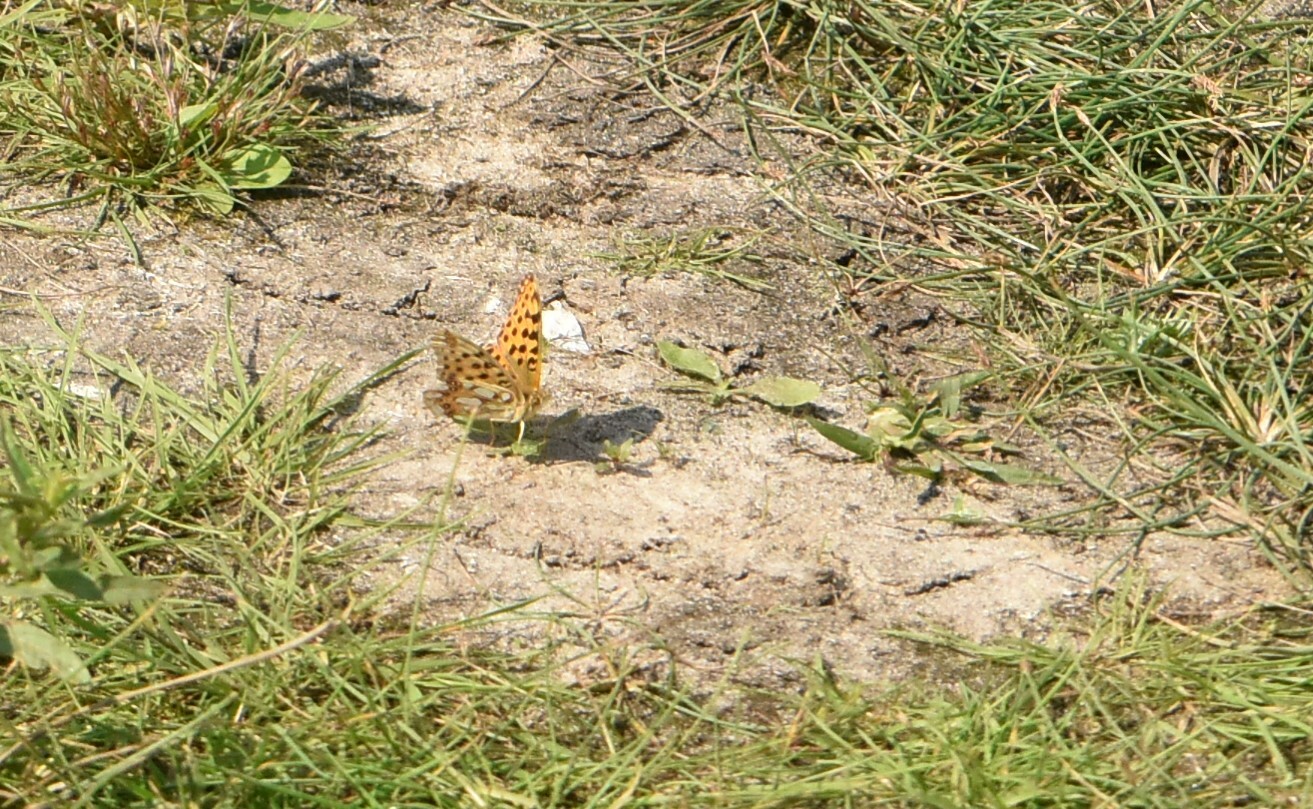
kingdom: Animalia
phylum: Arthropoda
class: Insecta
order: Lepidoptera
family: Nymphalidae
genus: Issoria
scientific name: Issoria lathonia
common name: Queen of spain fritillary
